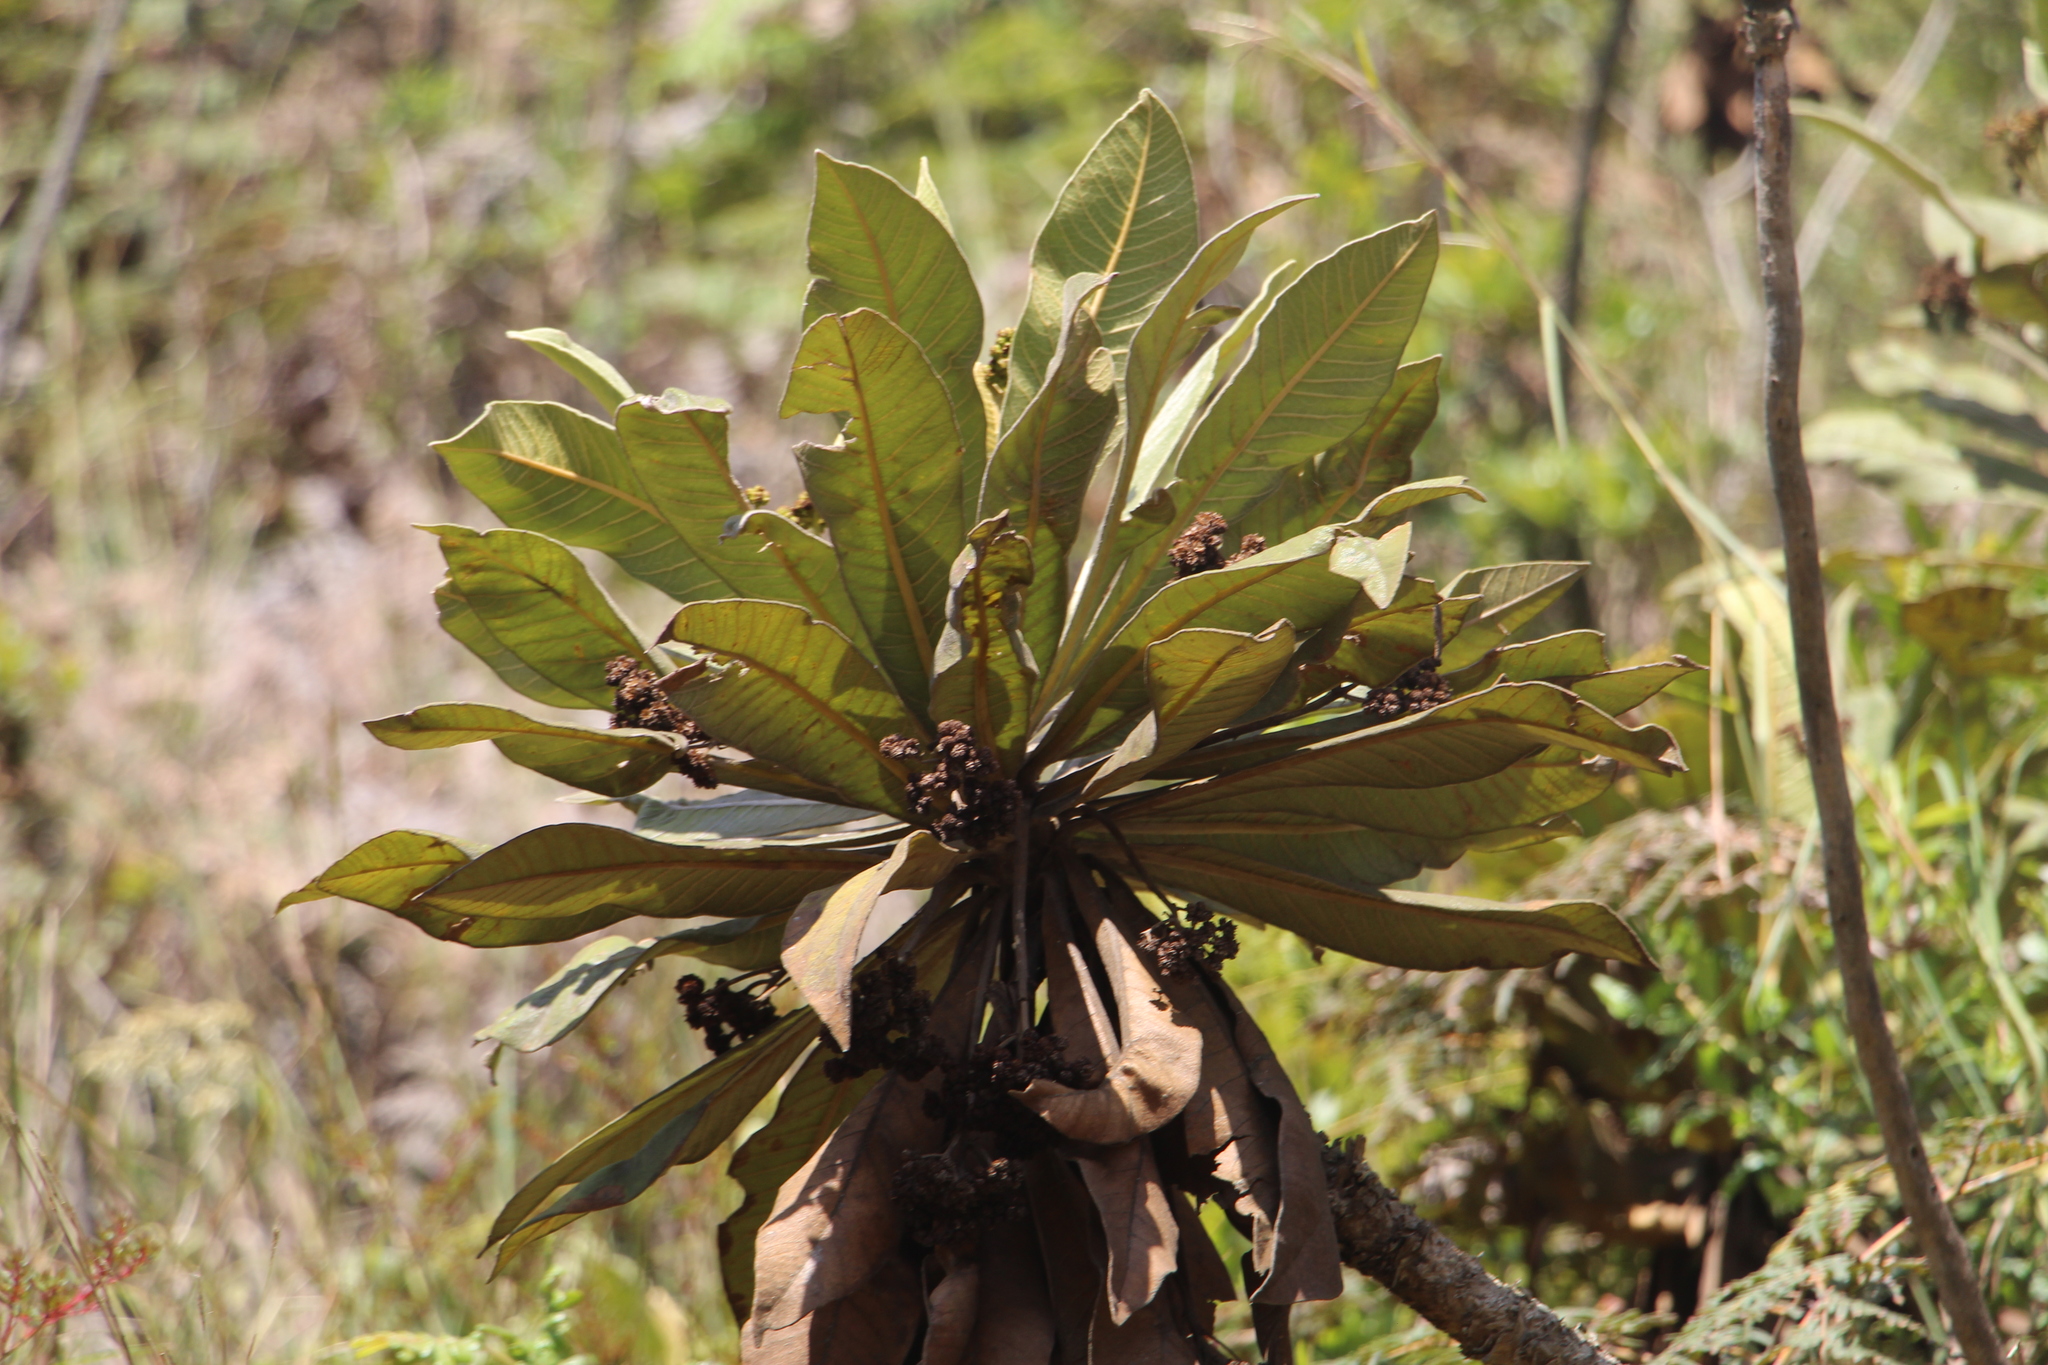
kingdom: Plantae
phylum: Tracheophyta
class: Magnoliopsida
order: Asterales
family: Asteraceae
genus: Espeletia
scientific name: Espeletia garciae
